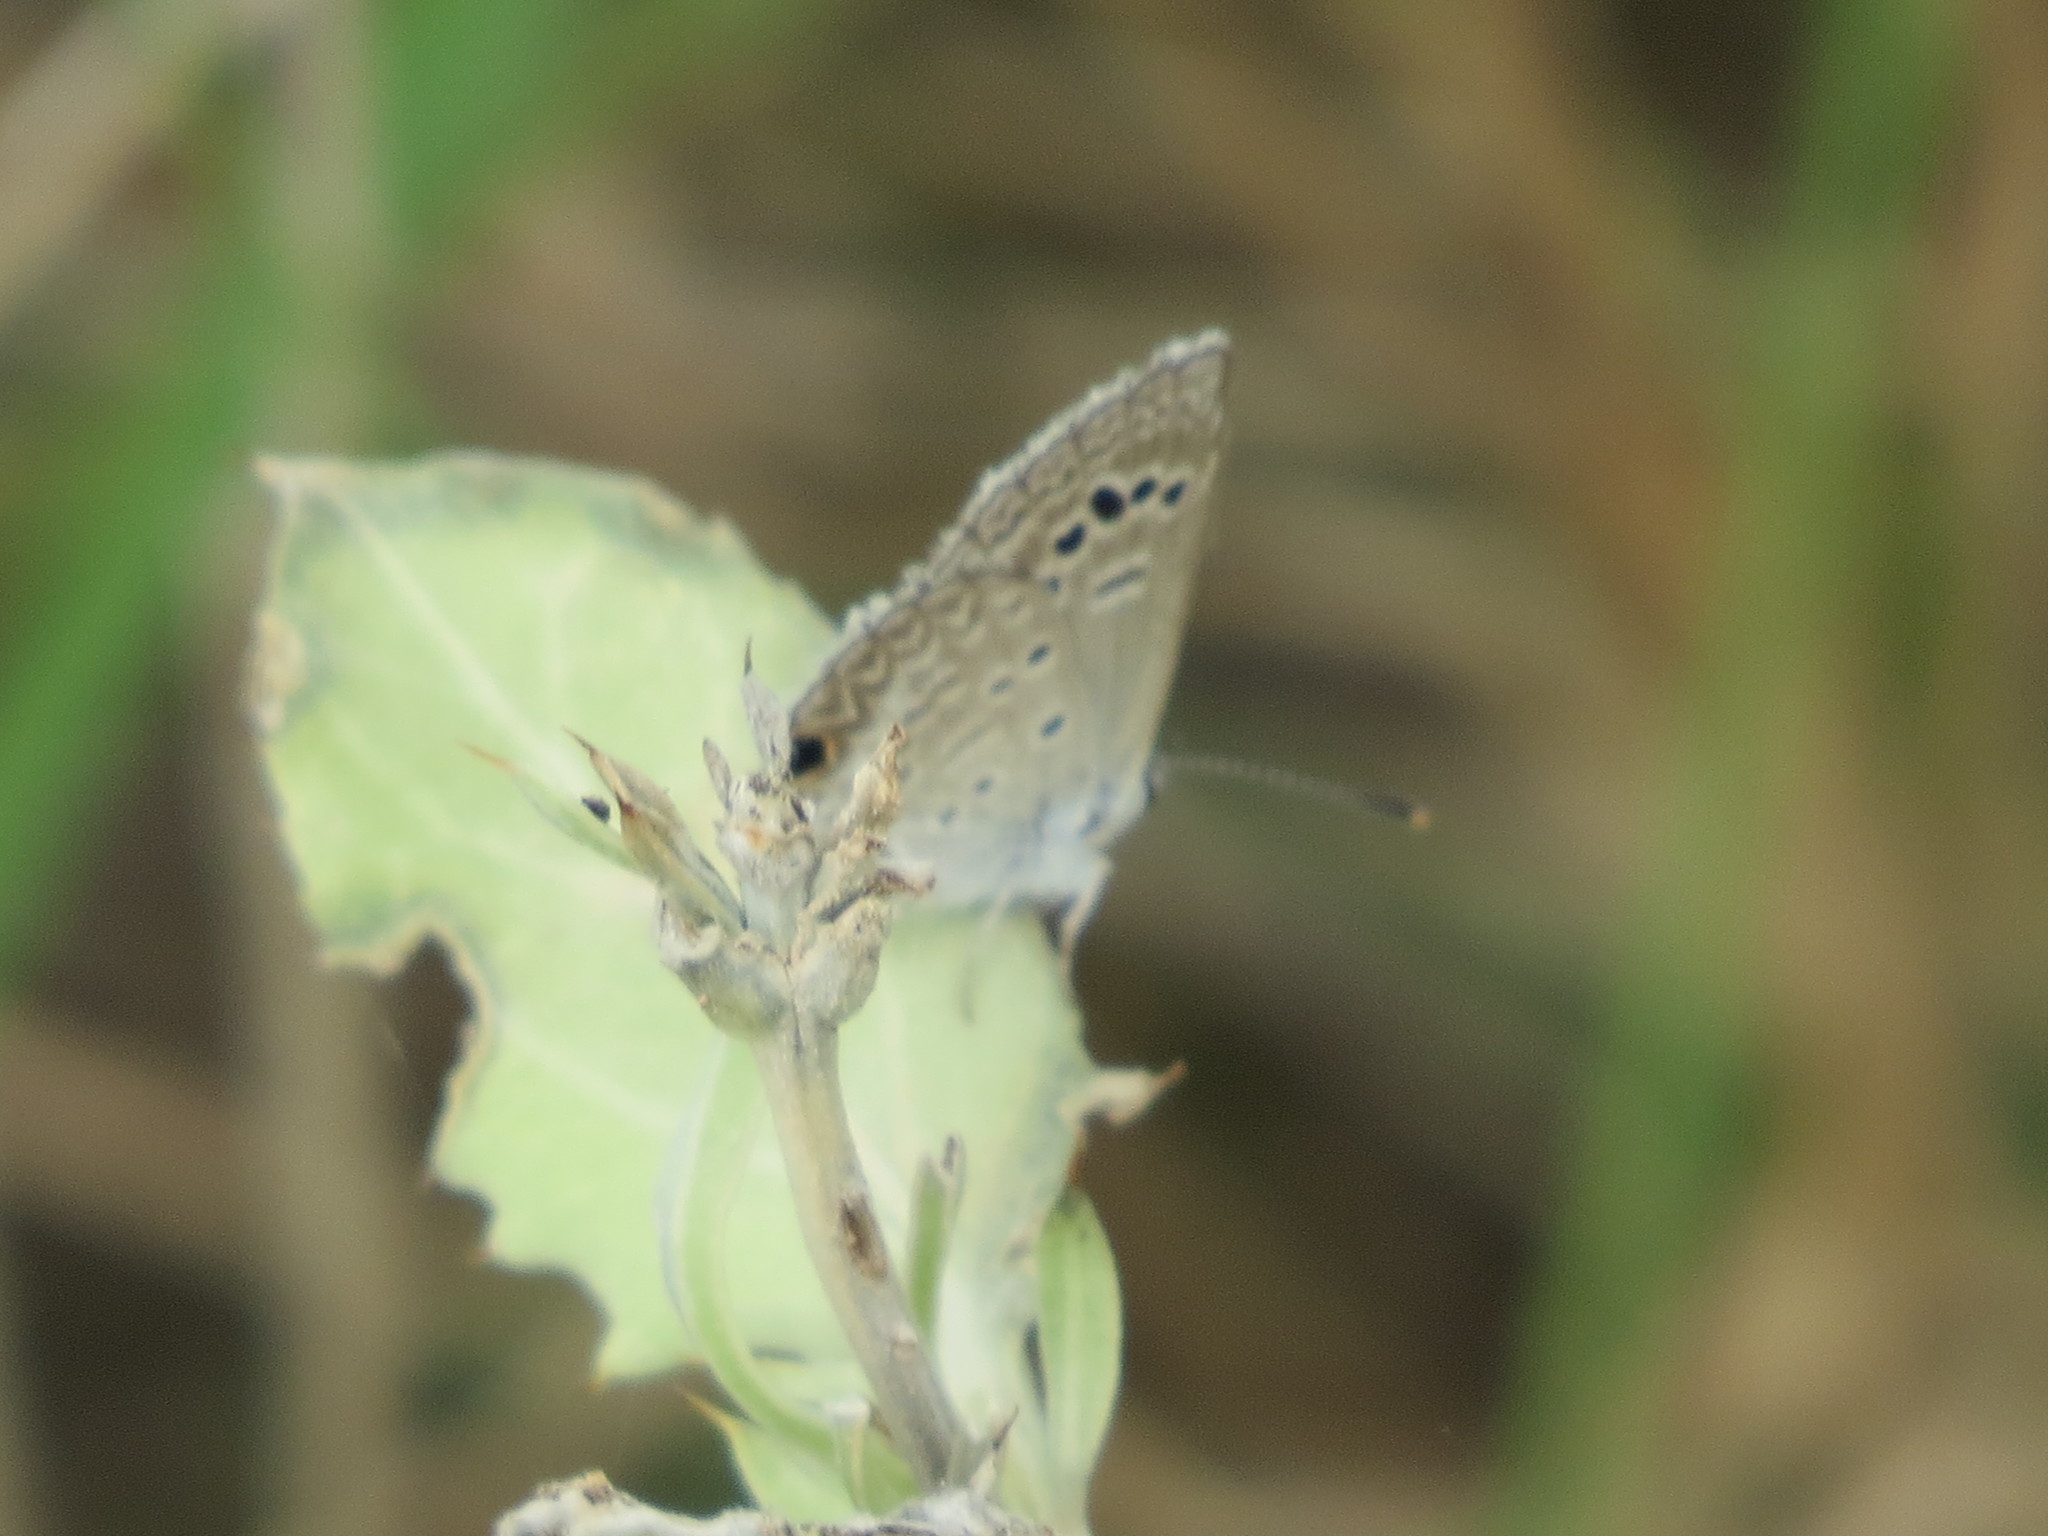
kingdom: Animalia
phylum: Arthropoda
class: Insecta
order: Lepidoptera
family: Lycaenidae
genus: Echinargus
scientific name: Echinargus isola
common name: Reakirt's blue
